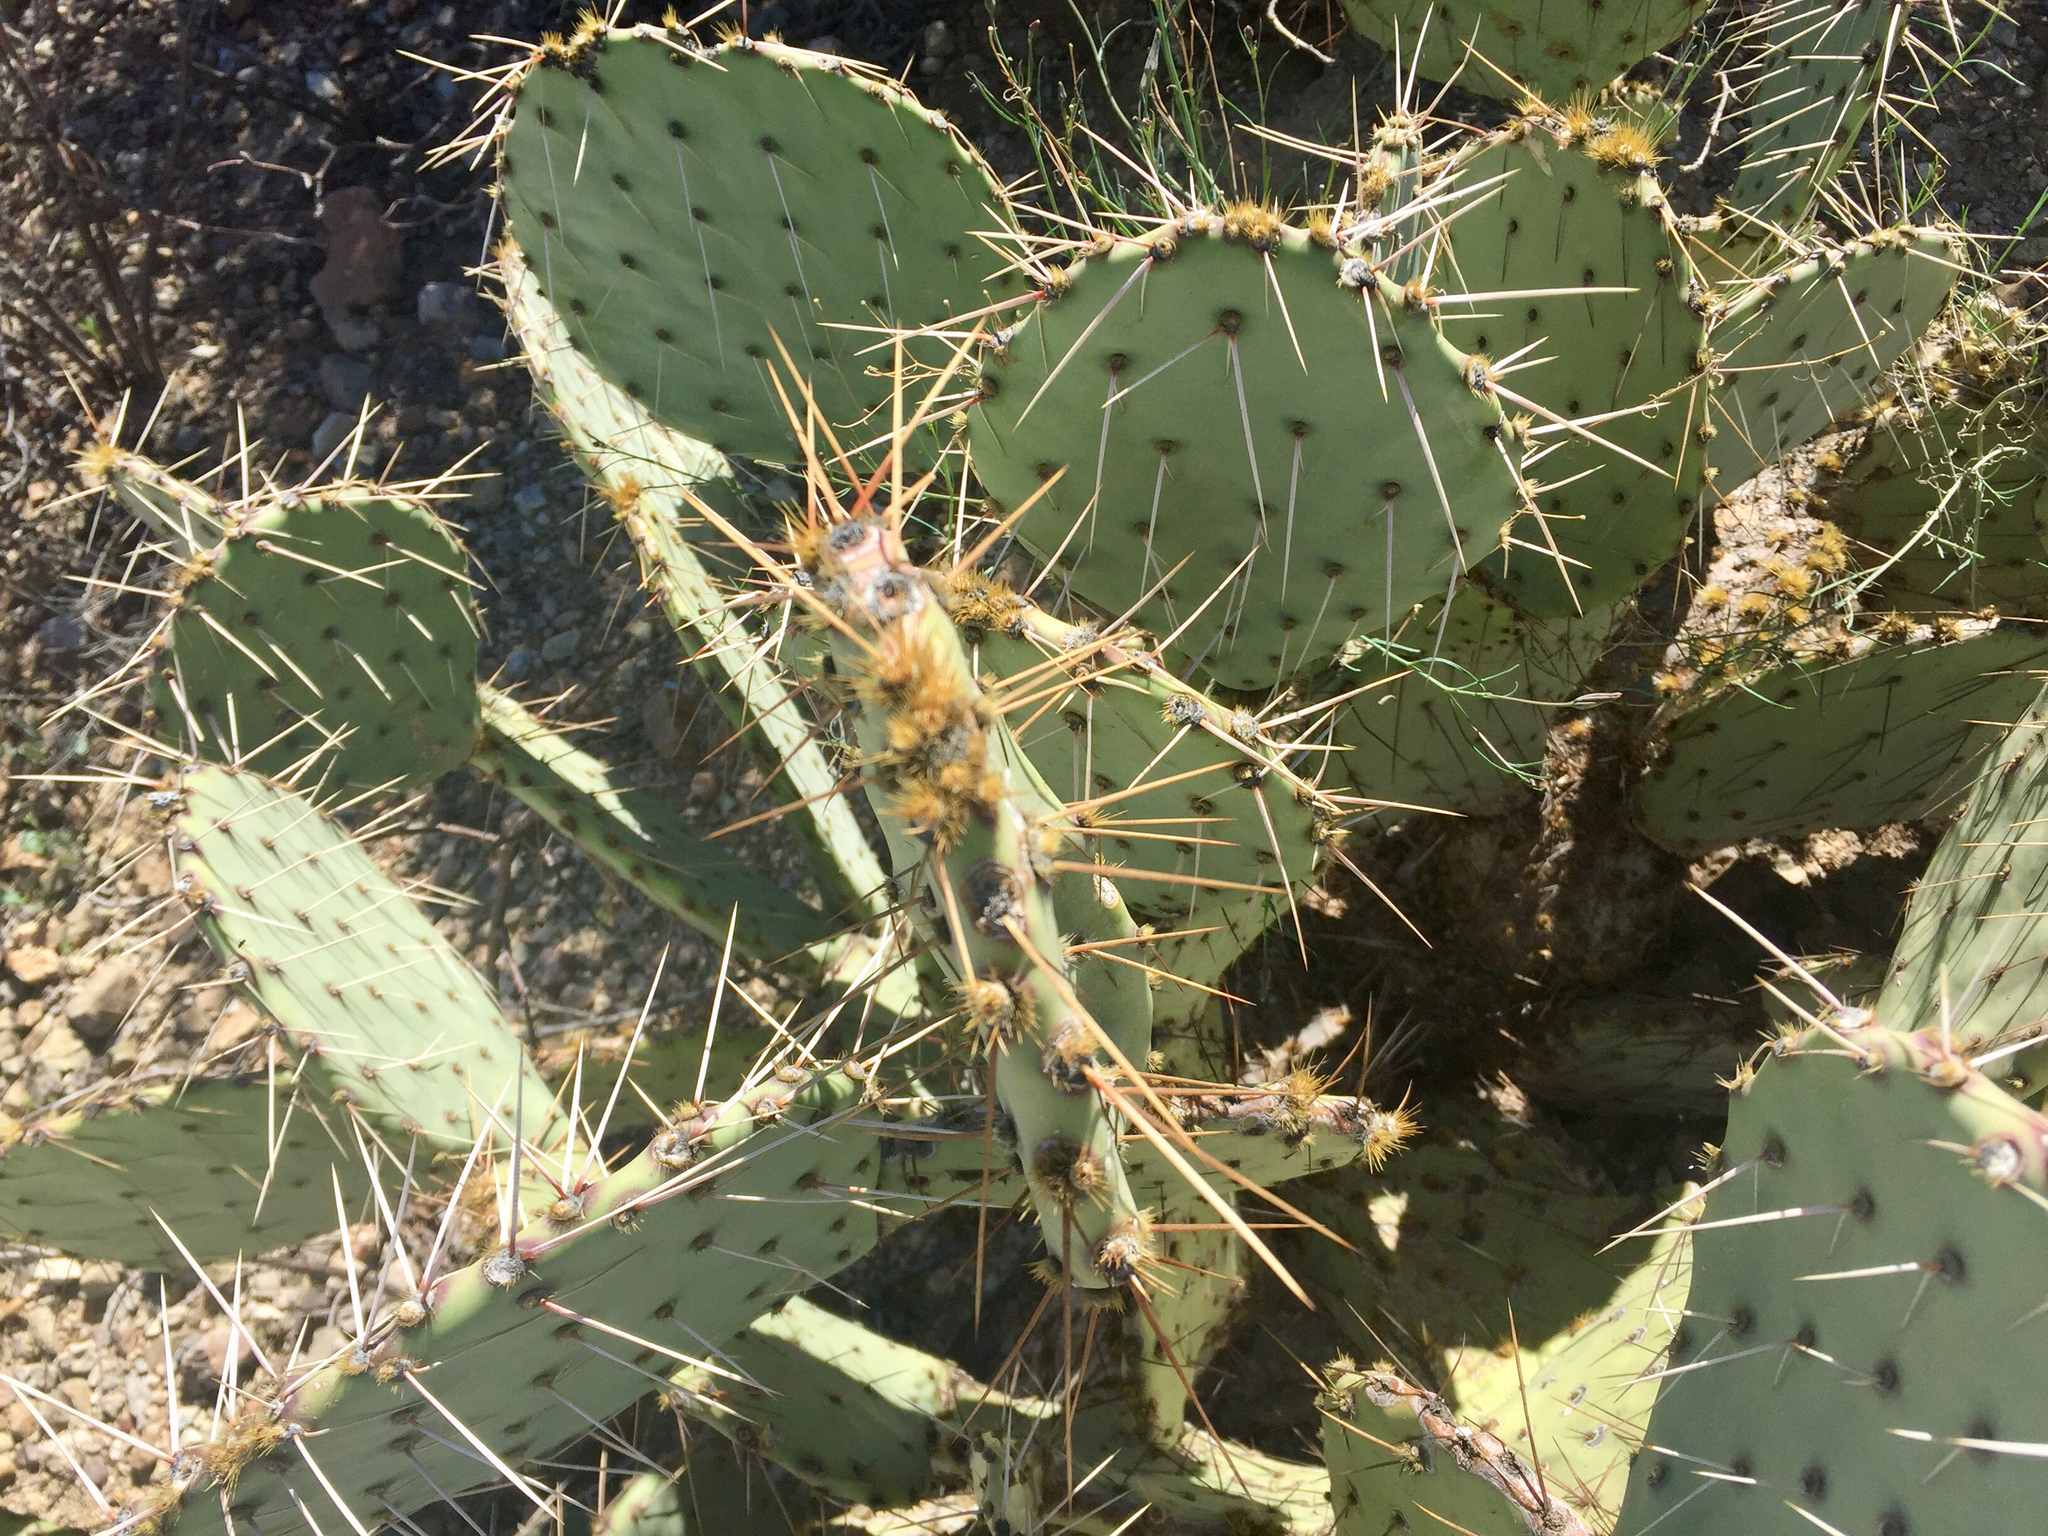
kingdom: Plantae
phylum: Tracheophyta
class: Magnoliopsida
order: Caryophyllales
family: Cactaceae
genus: Opuntia
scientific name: Opuntia engelmannii
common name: Cactus-apple
